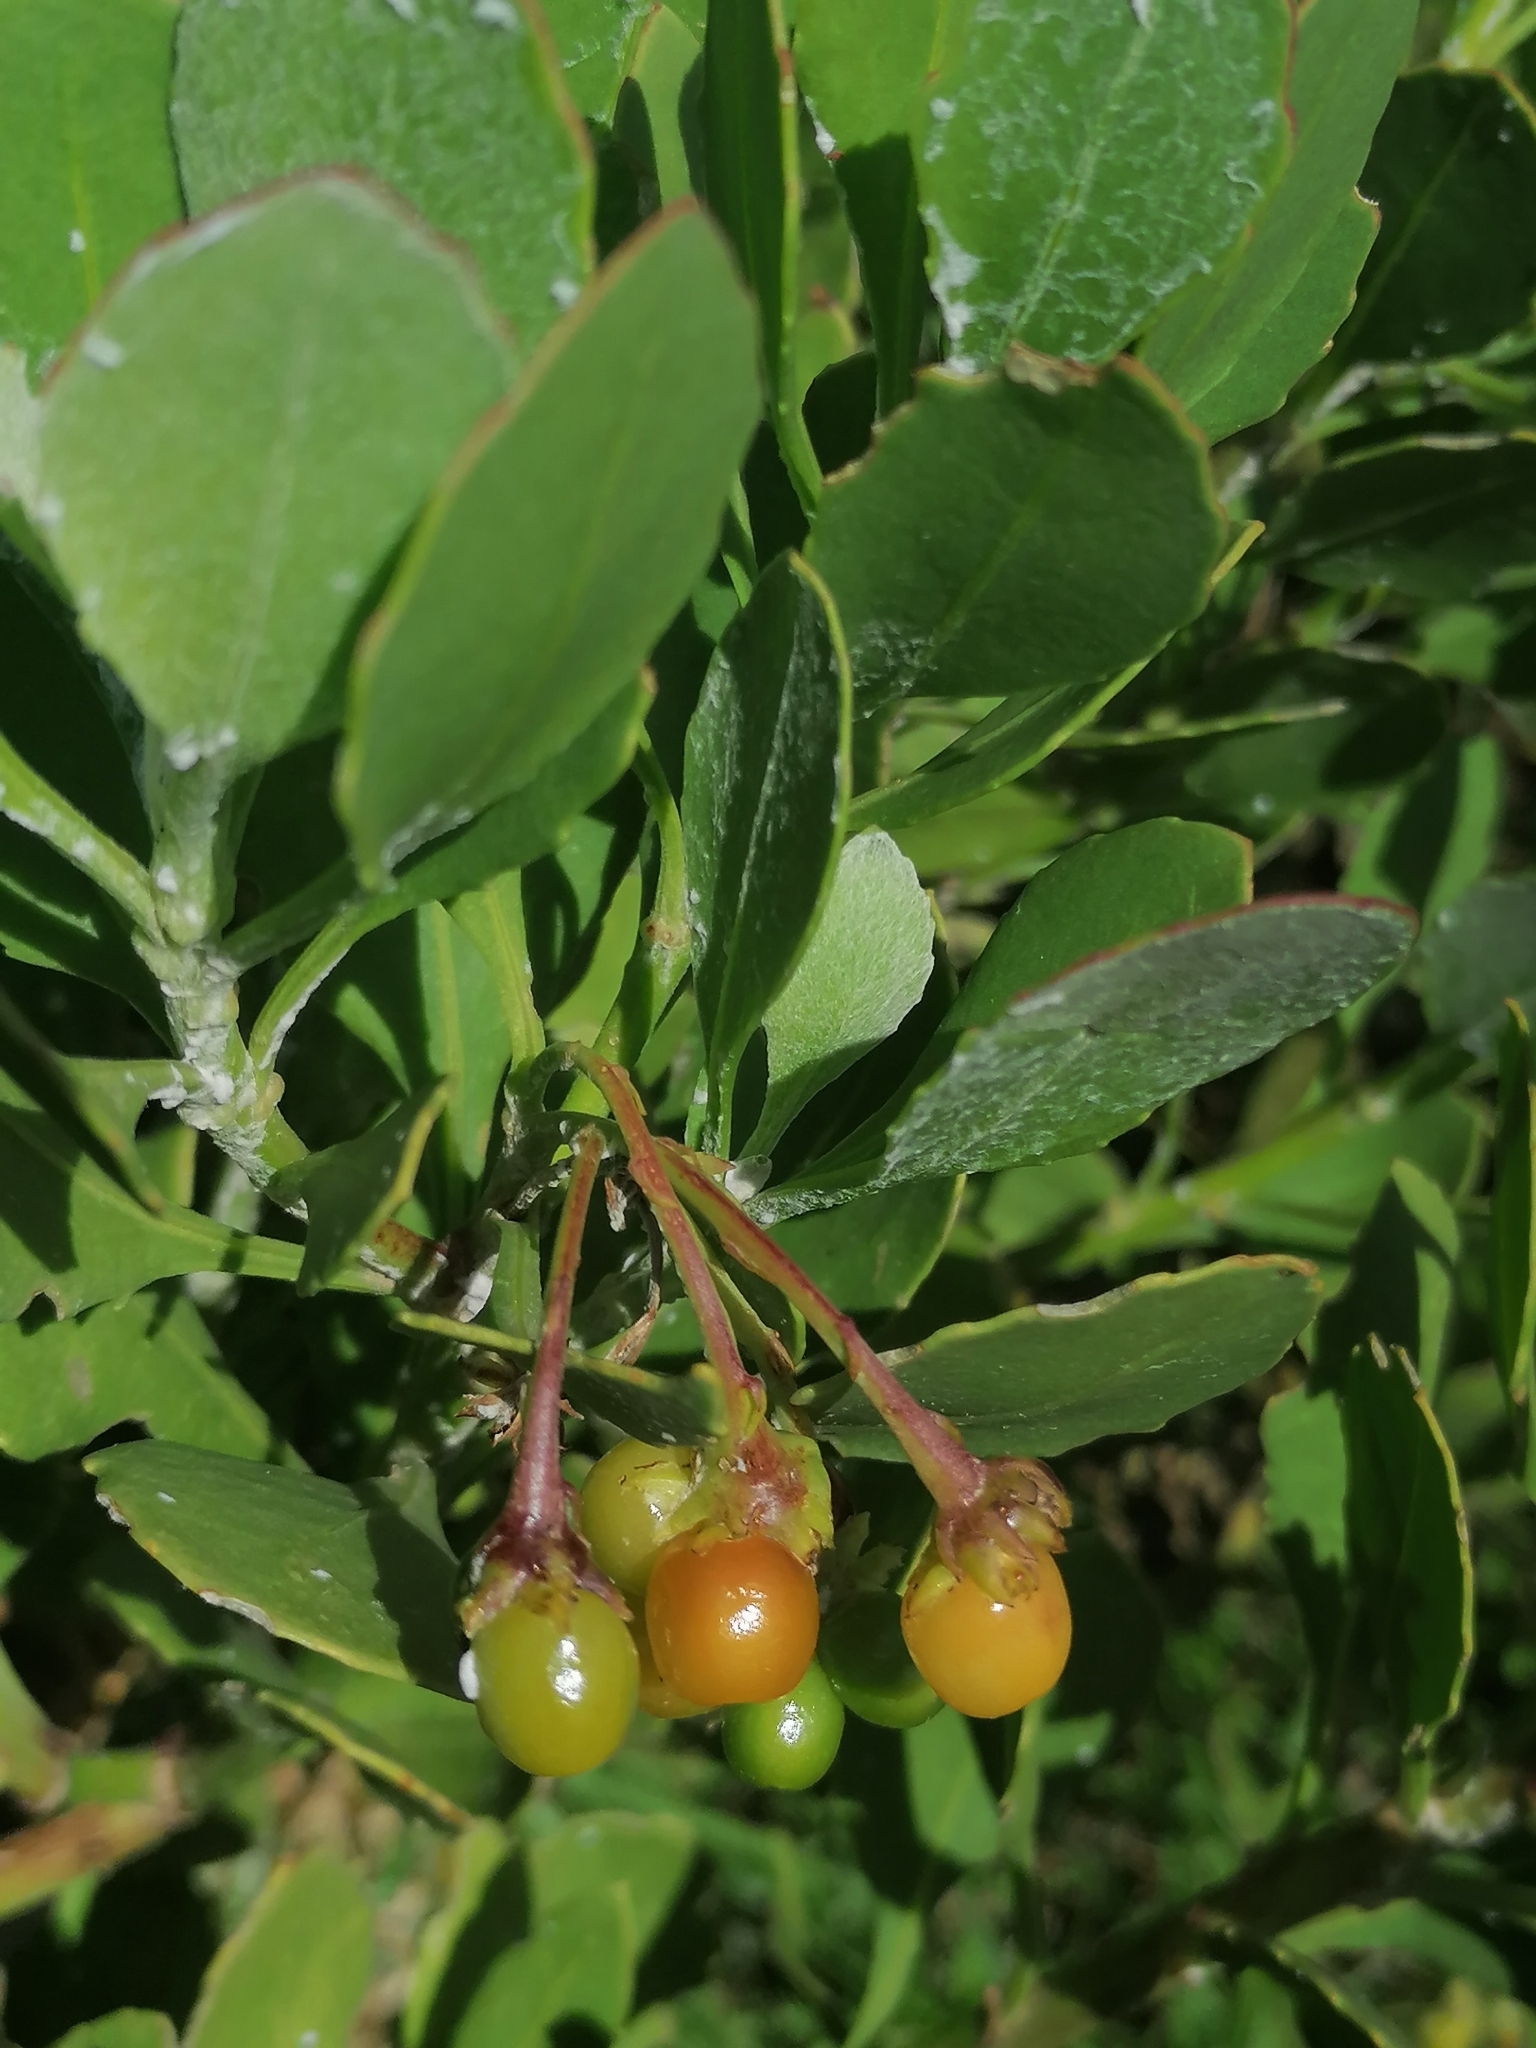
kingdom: Plantae
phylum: Tracheophyta
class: Magnoliopsida
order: Asterales
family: Asteraceae
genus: Osteospermum
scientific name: Osteospermum moniliferum
